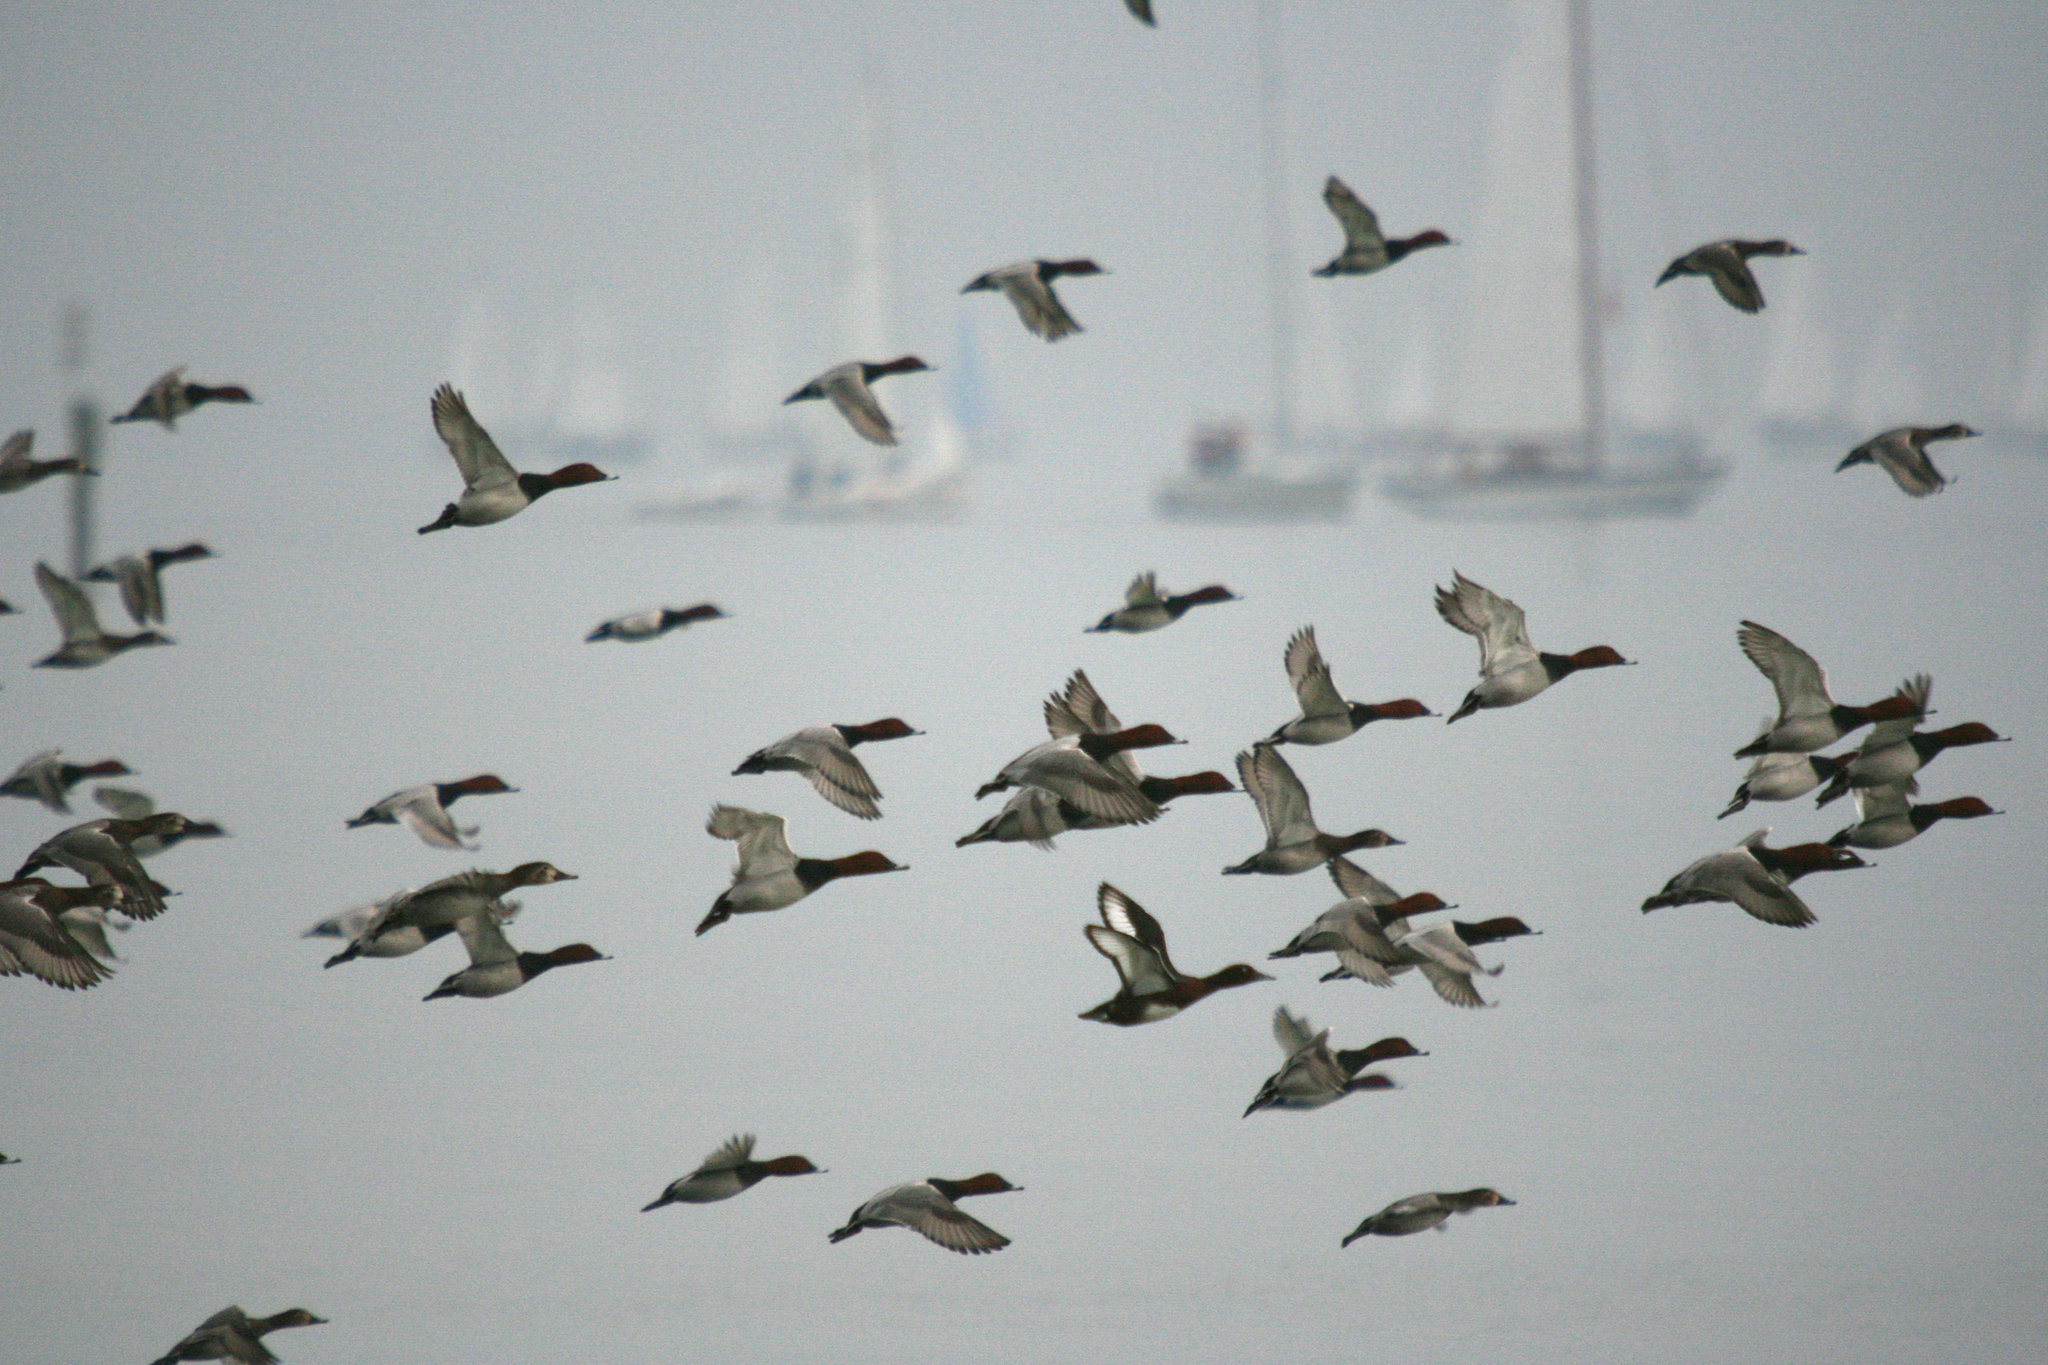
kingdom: Animalia
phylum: Chordata
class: Aves
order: Anseriformes
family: Anatidae
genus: Aythya
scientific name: Aythya nyroca
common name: Ferruginous duck
